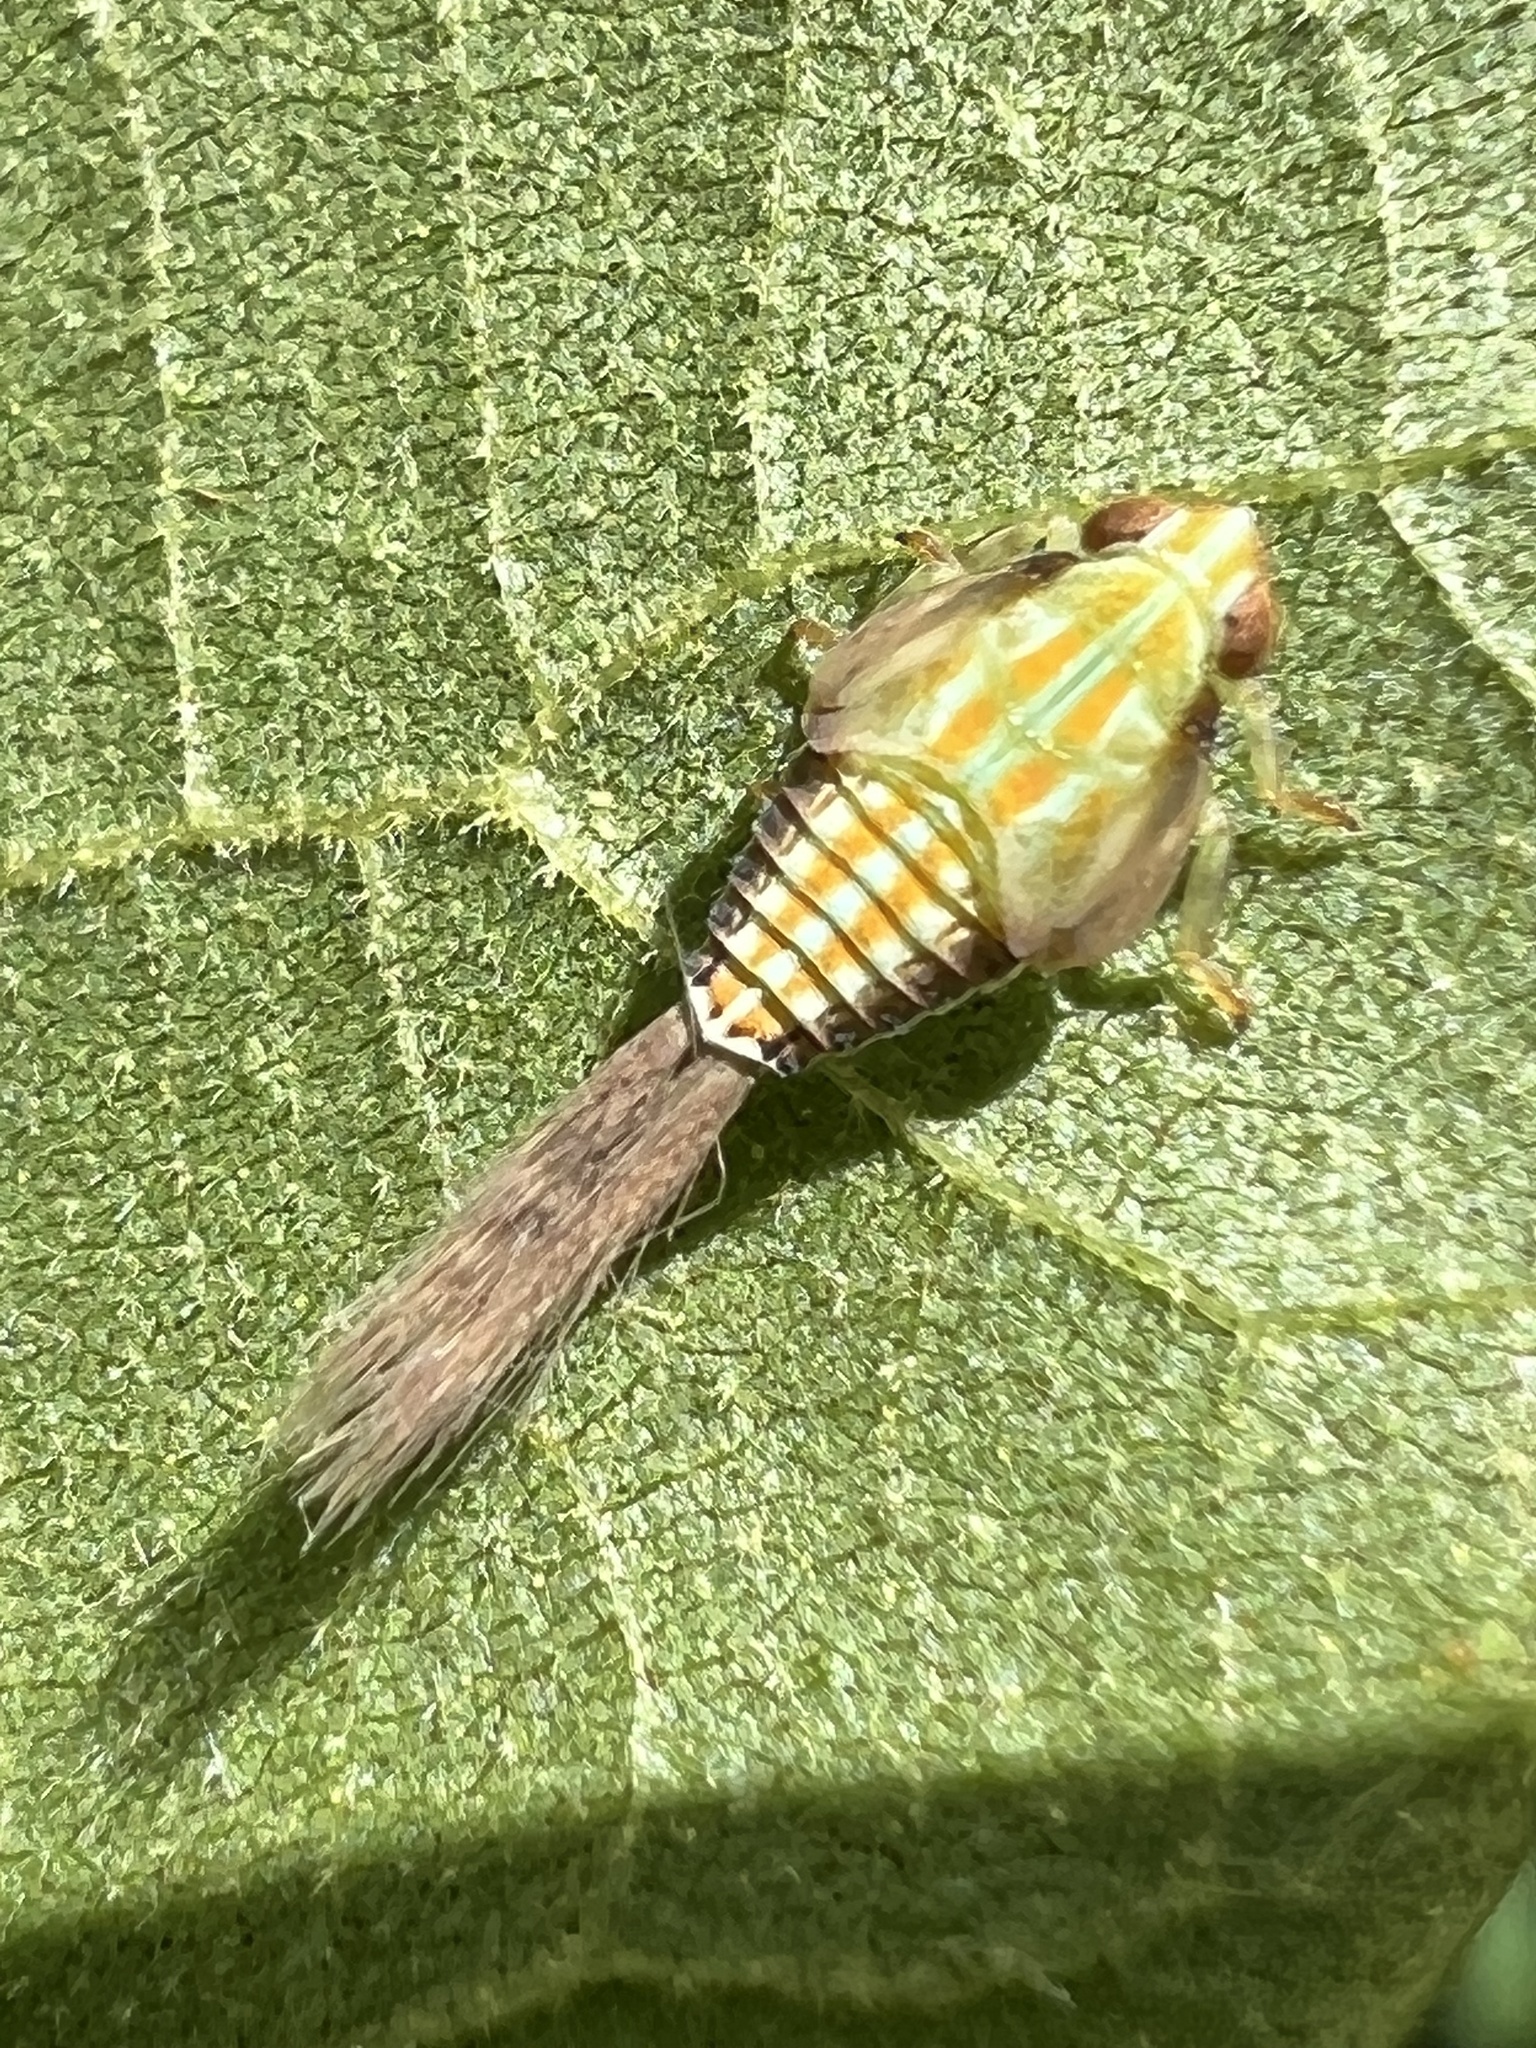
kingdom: Animalia
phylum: Arthropoda
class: Insecta
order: Hemiptera
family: Issidae
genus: Thionia
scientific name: Thionia bullata
